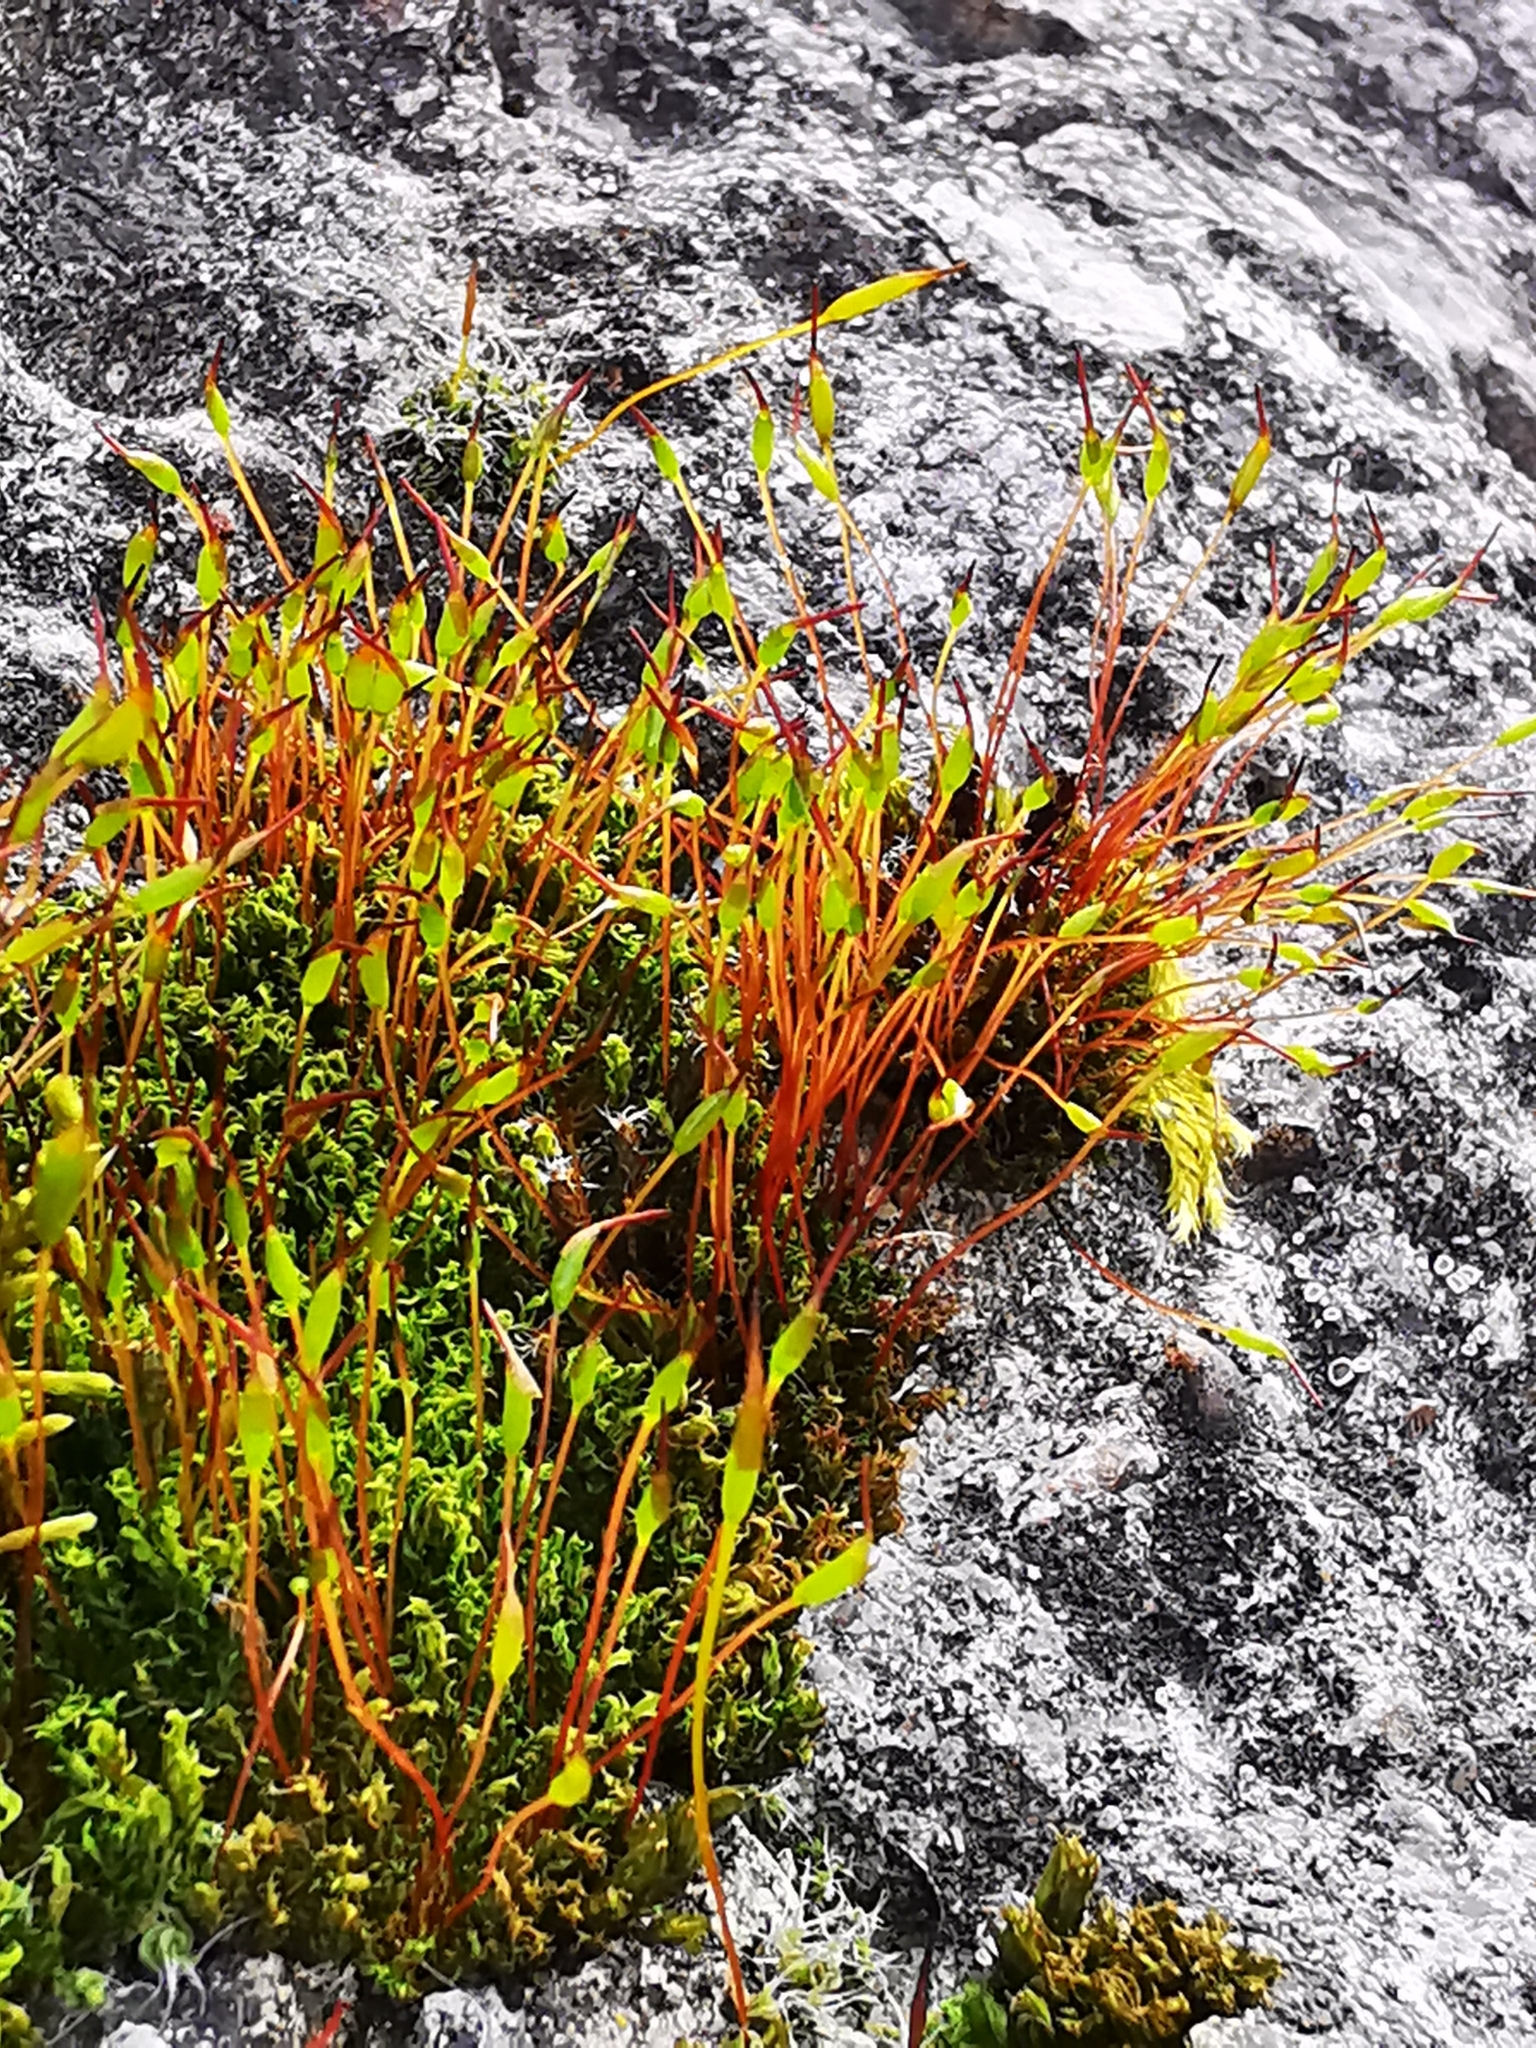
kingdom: Plantae
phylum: Bryophyta
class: Bryopsida
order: Pottiales
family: Pottiaceae
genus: Tortula
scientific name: Tortula muralis
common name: Wall screw-moss
